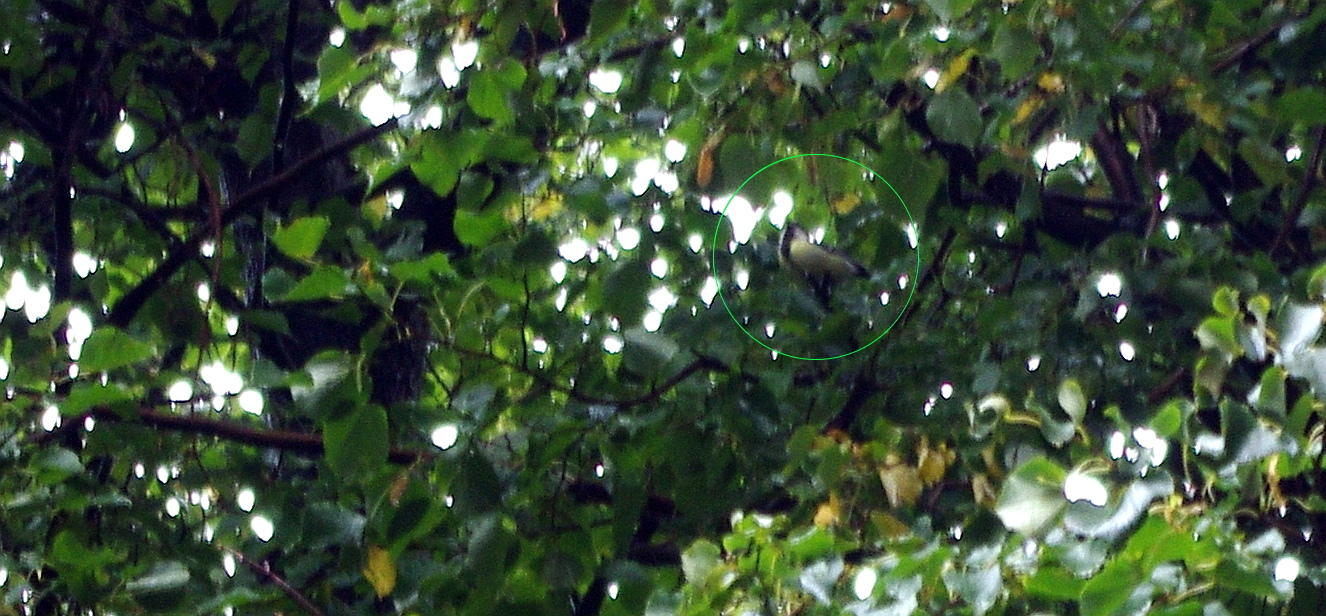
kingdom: Animalia
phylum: Chordata
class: Aves
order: Passeriformes
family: Paridae
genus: Parus
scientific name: Parus major
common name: Great tit
